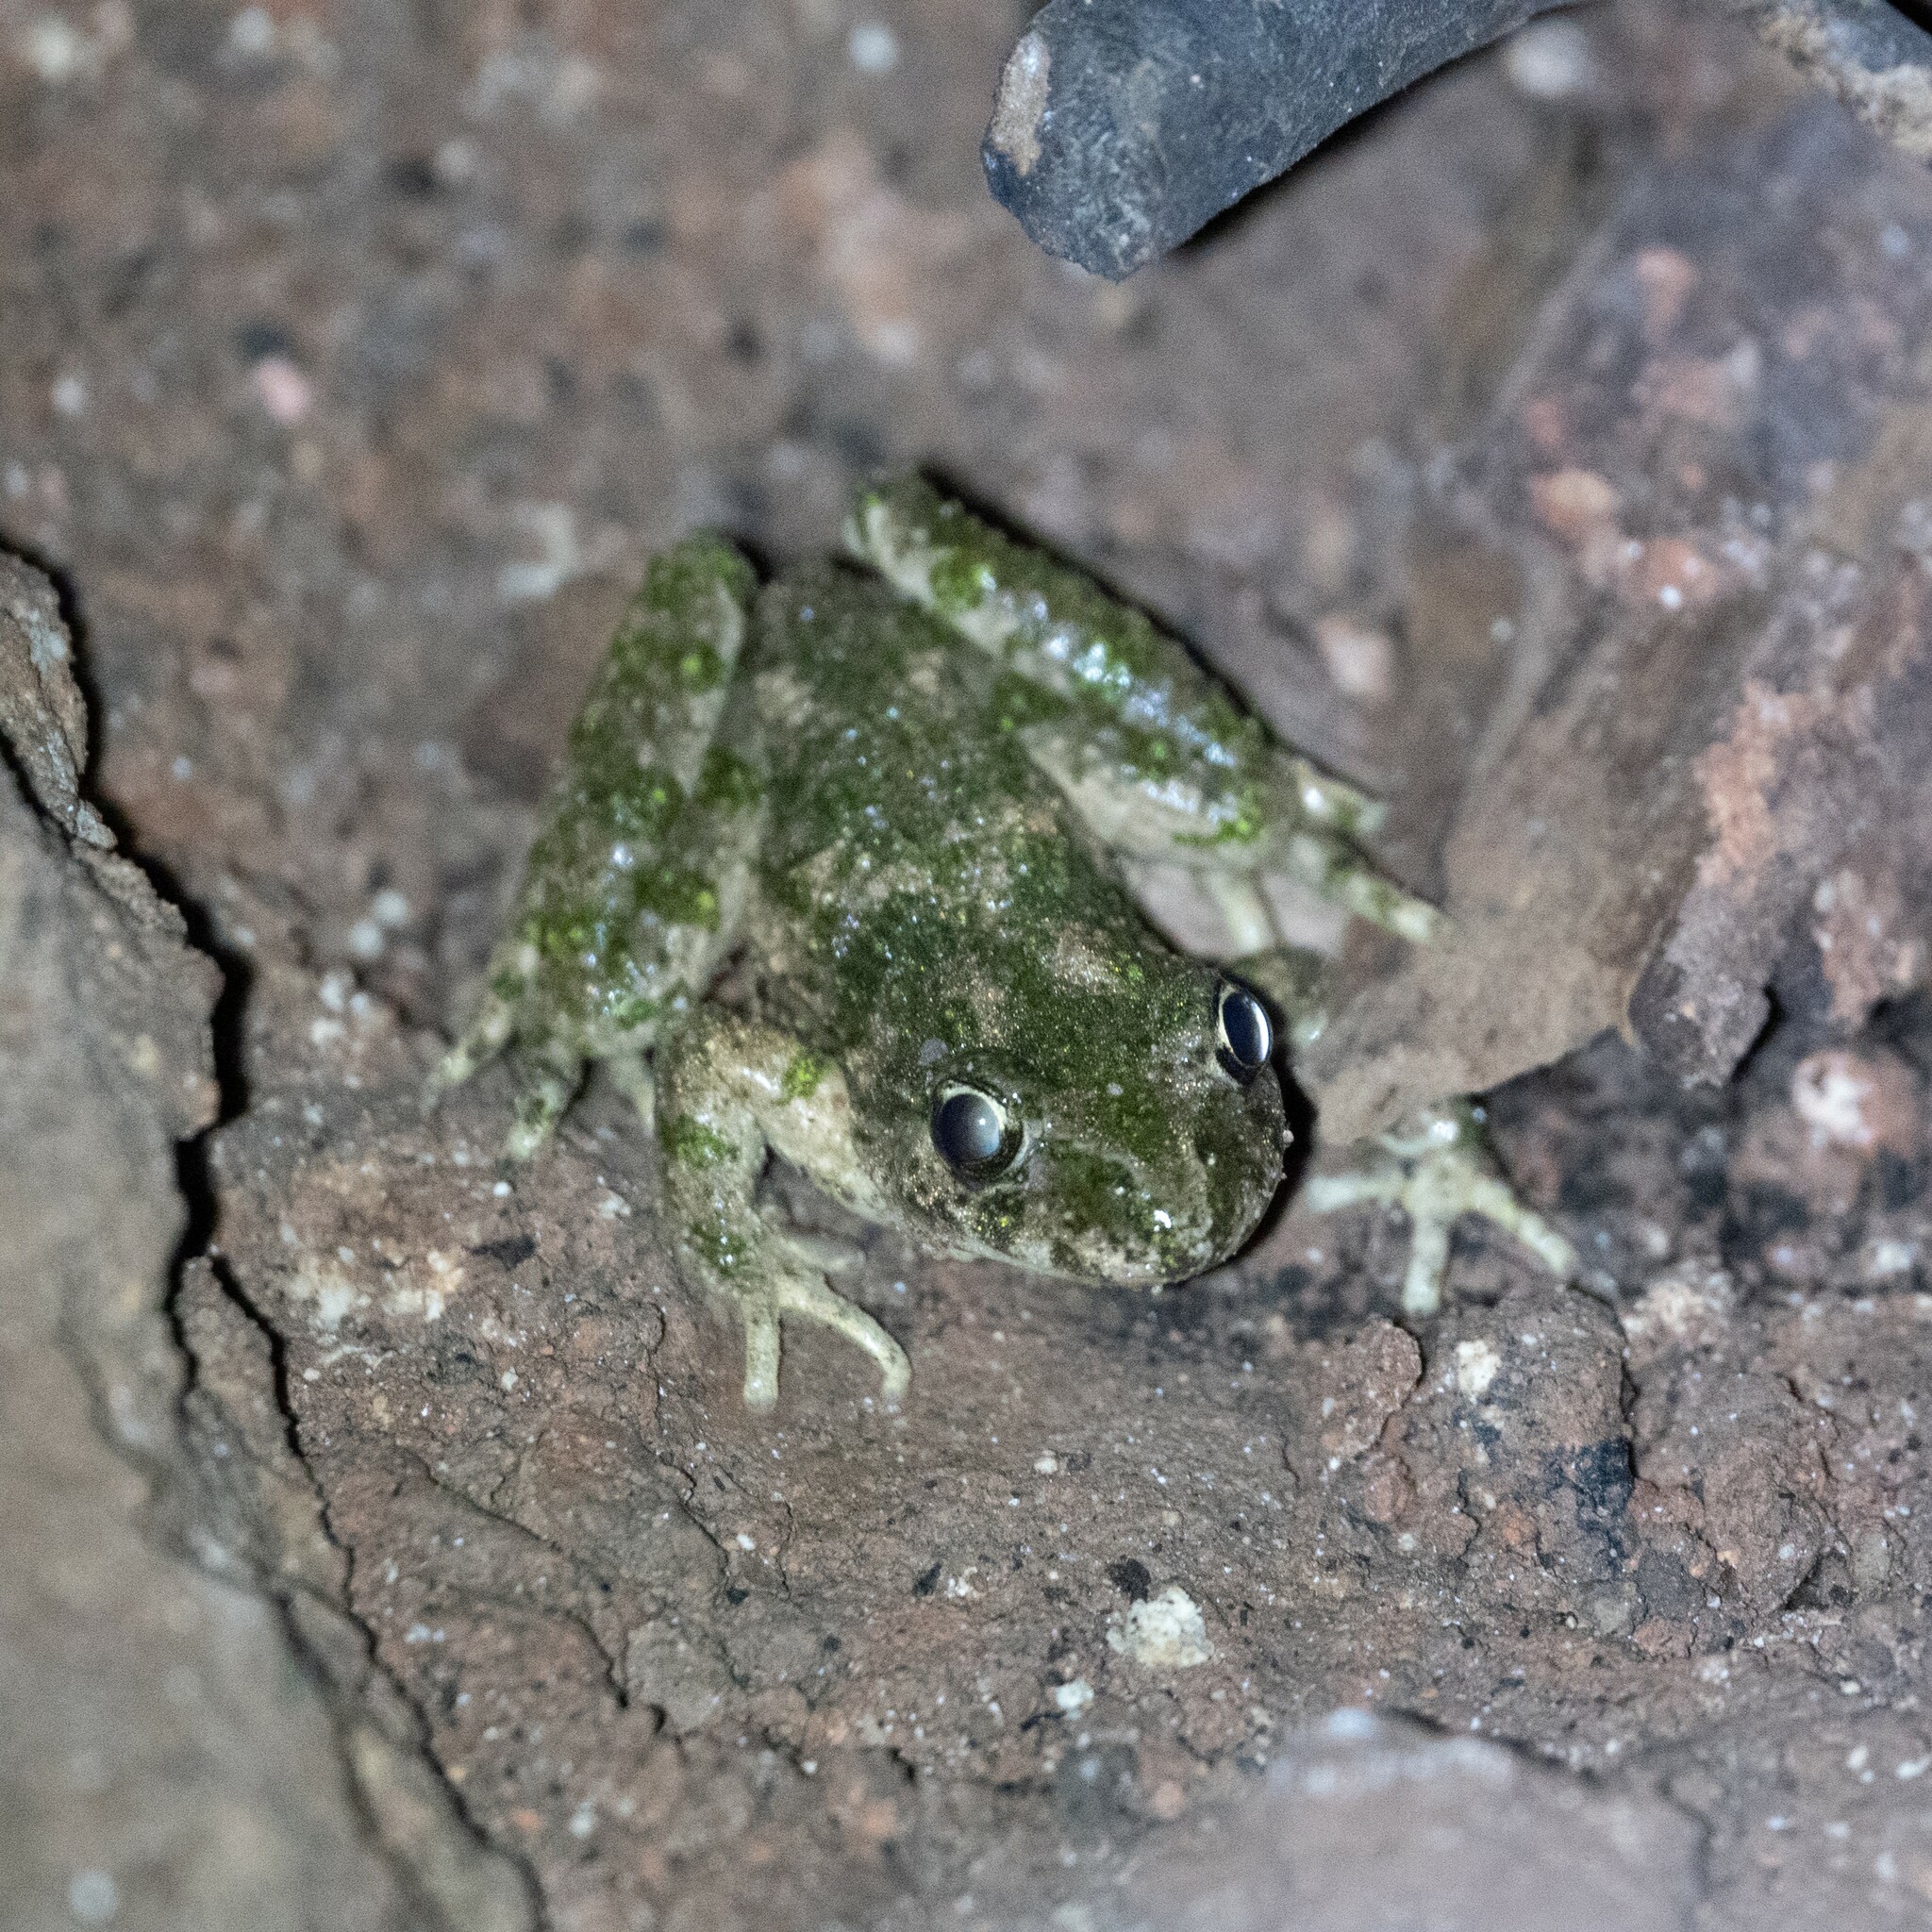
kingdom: Animalia
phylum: Chordata
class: Amphibia
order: Anura
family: Pelodytidae
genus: Pelodytes
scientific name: Pelodytes punctatus
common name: Parsley frog
